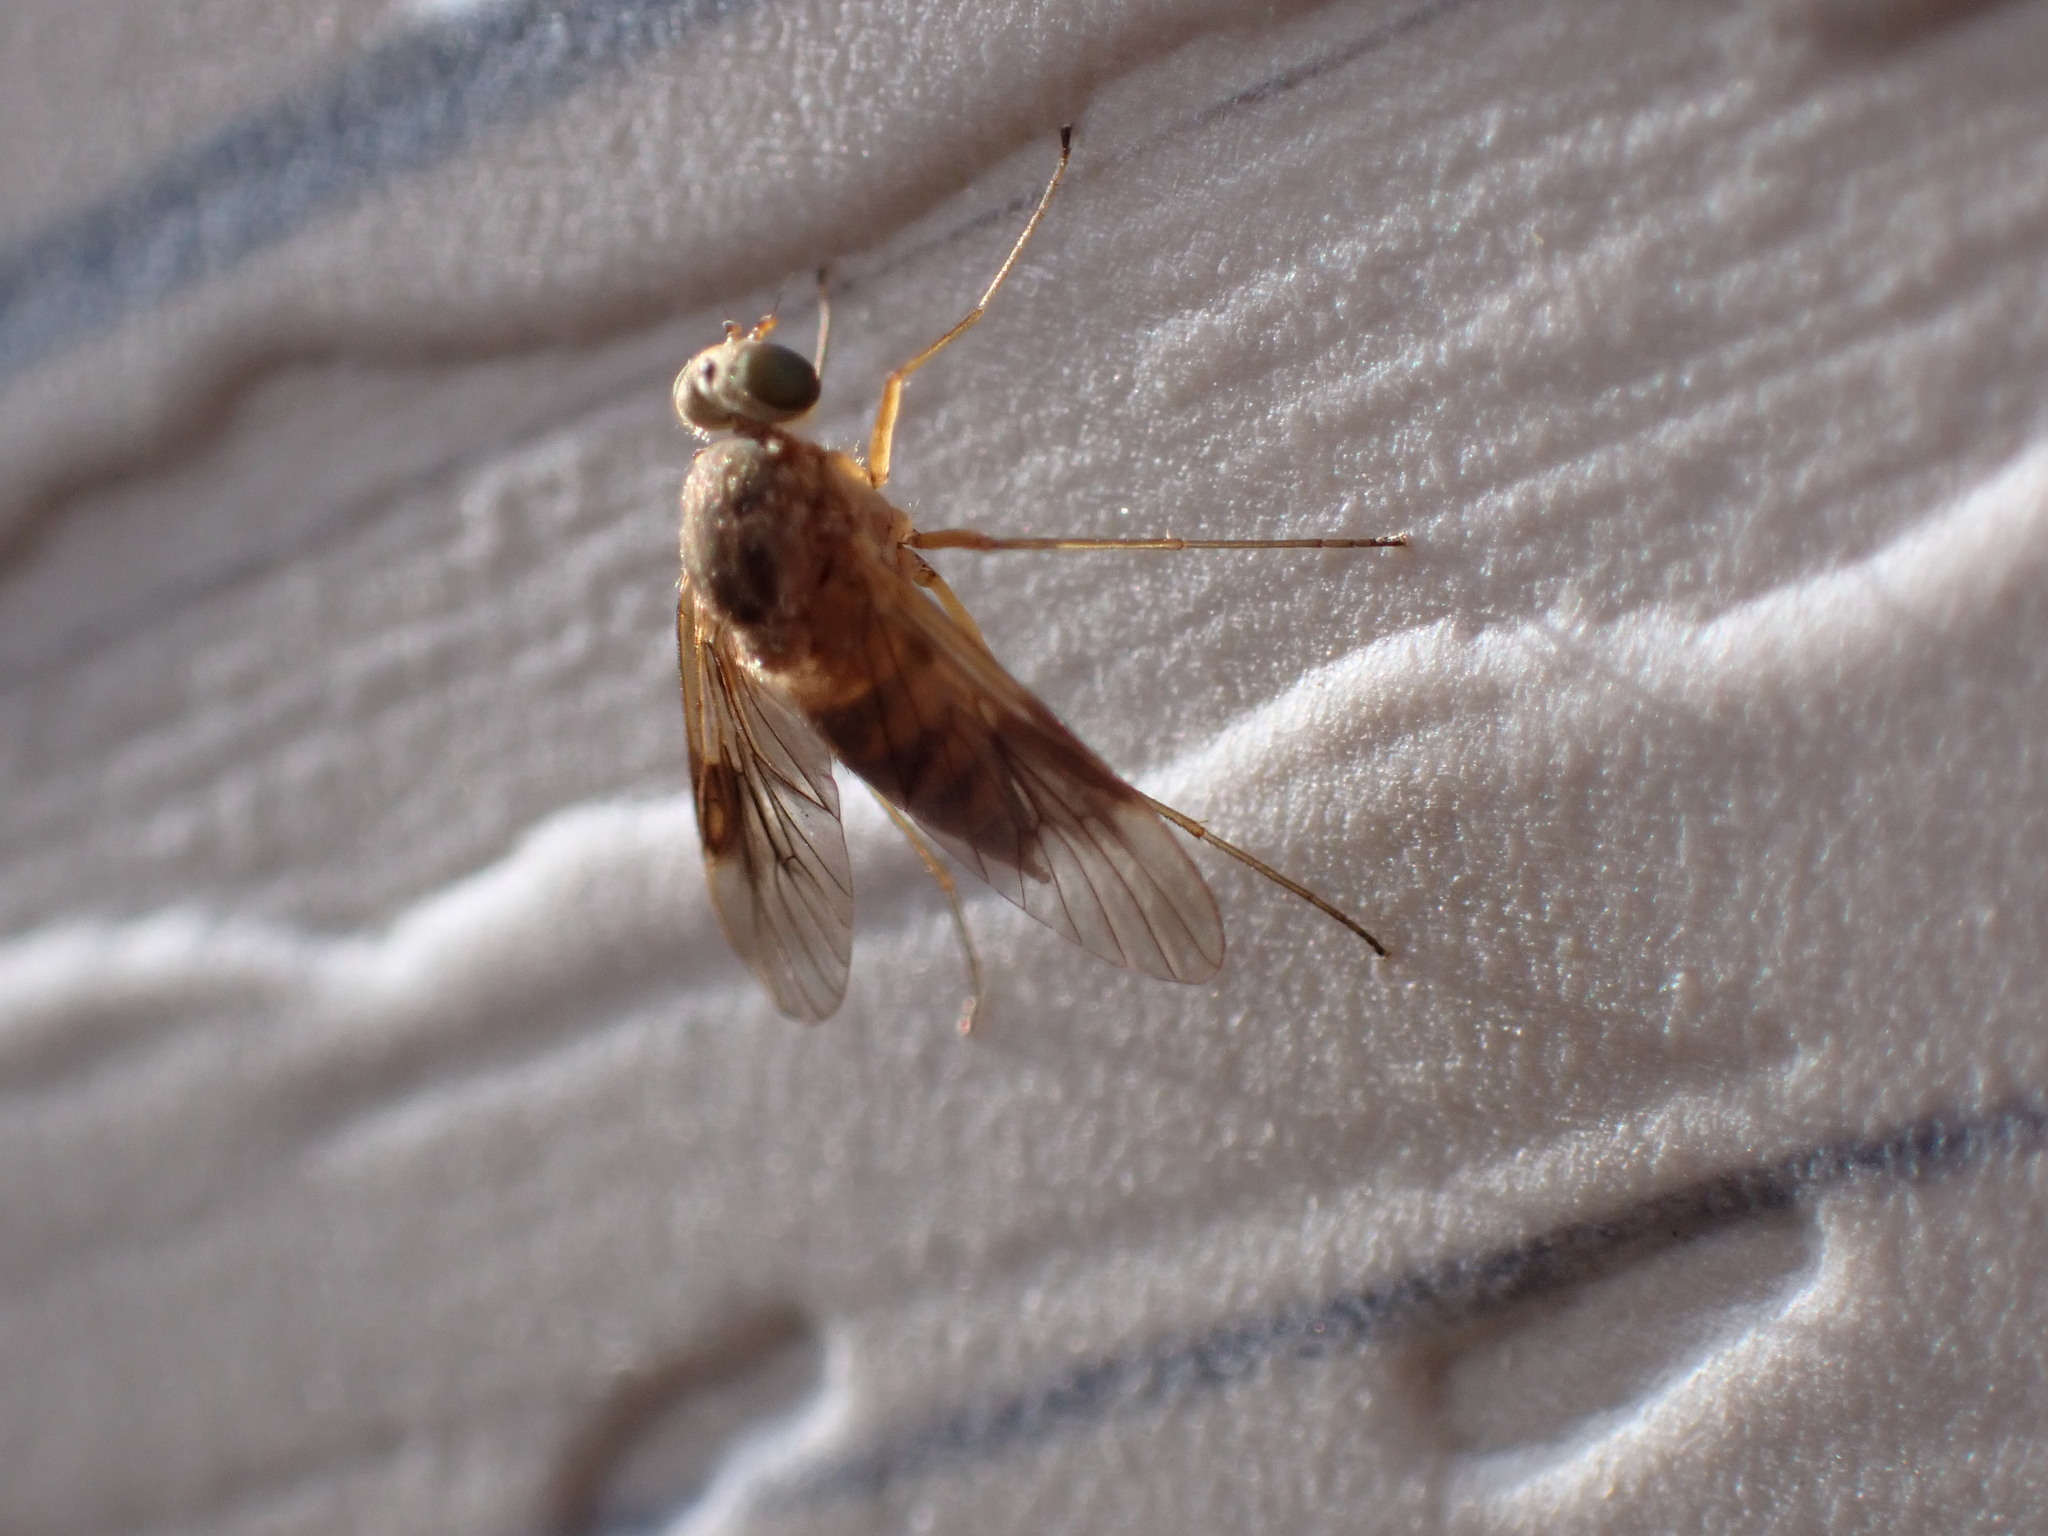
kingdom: Animalia
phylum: Arthropoda
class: Insecta
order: Diptera
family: Rhagionidae
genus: Chrysopilus
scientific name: Chrysopilus quadratus
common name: Quadrate snipe fly
